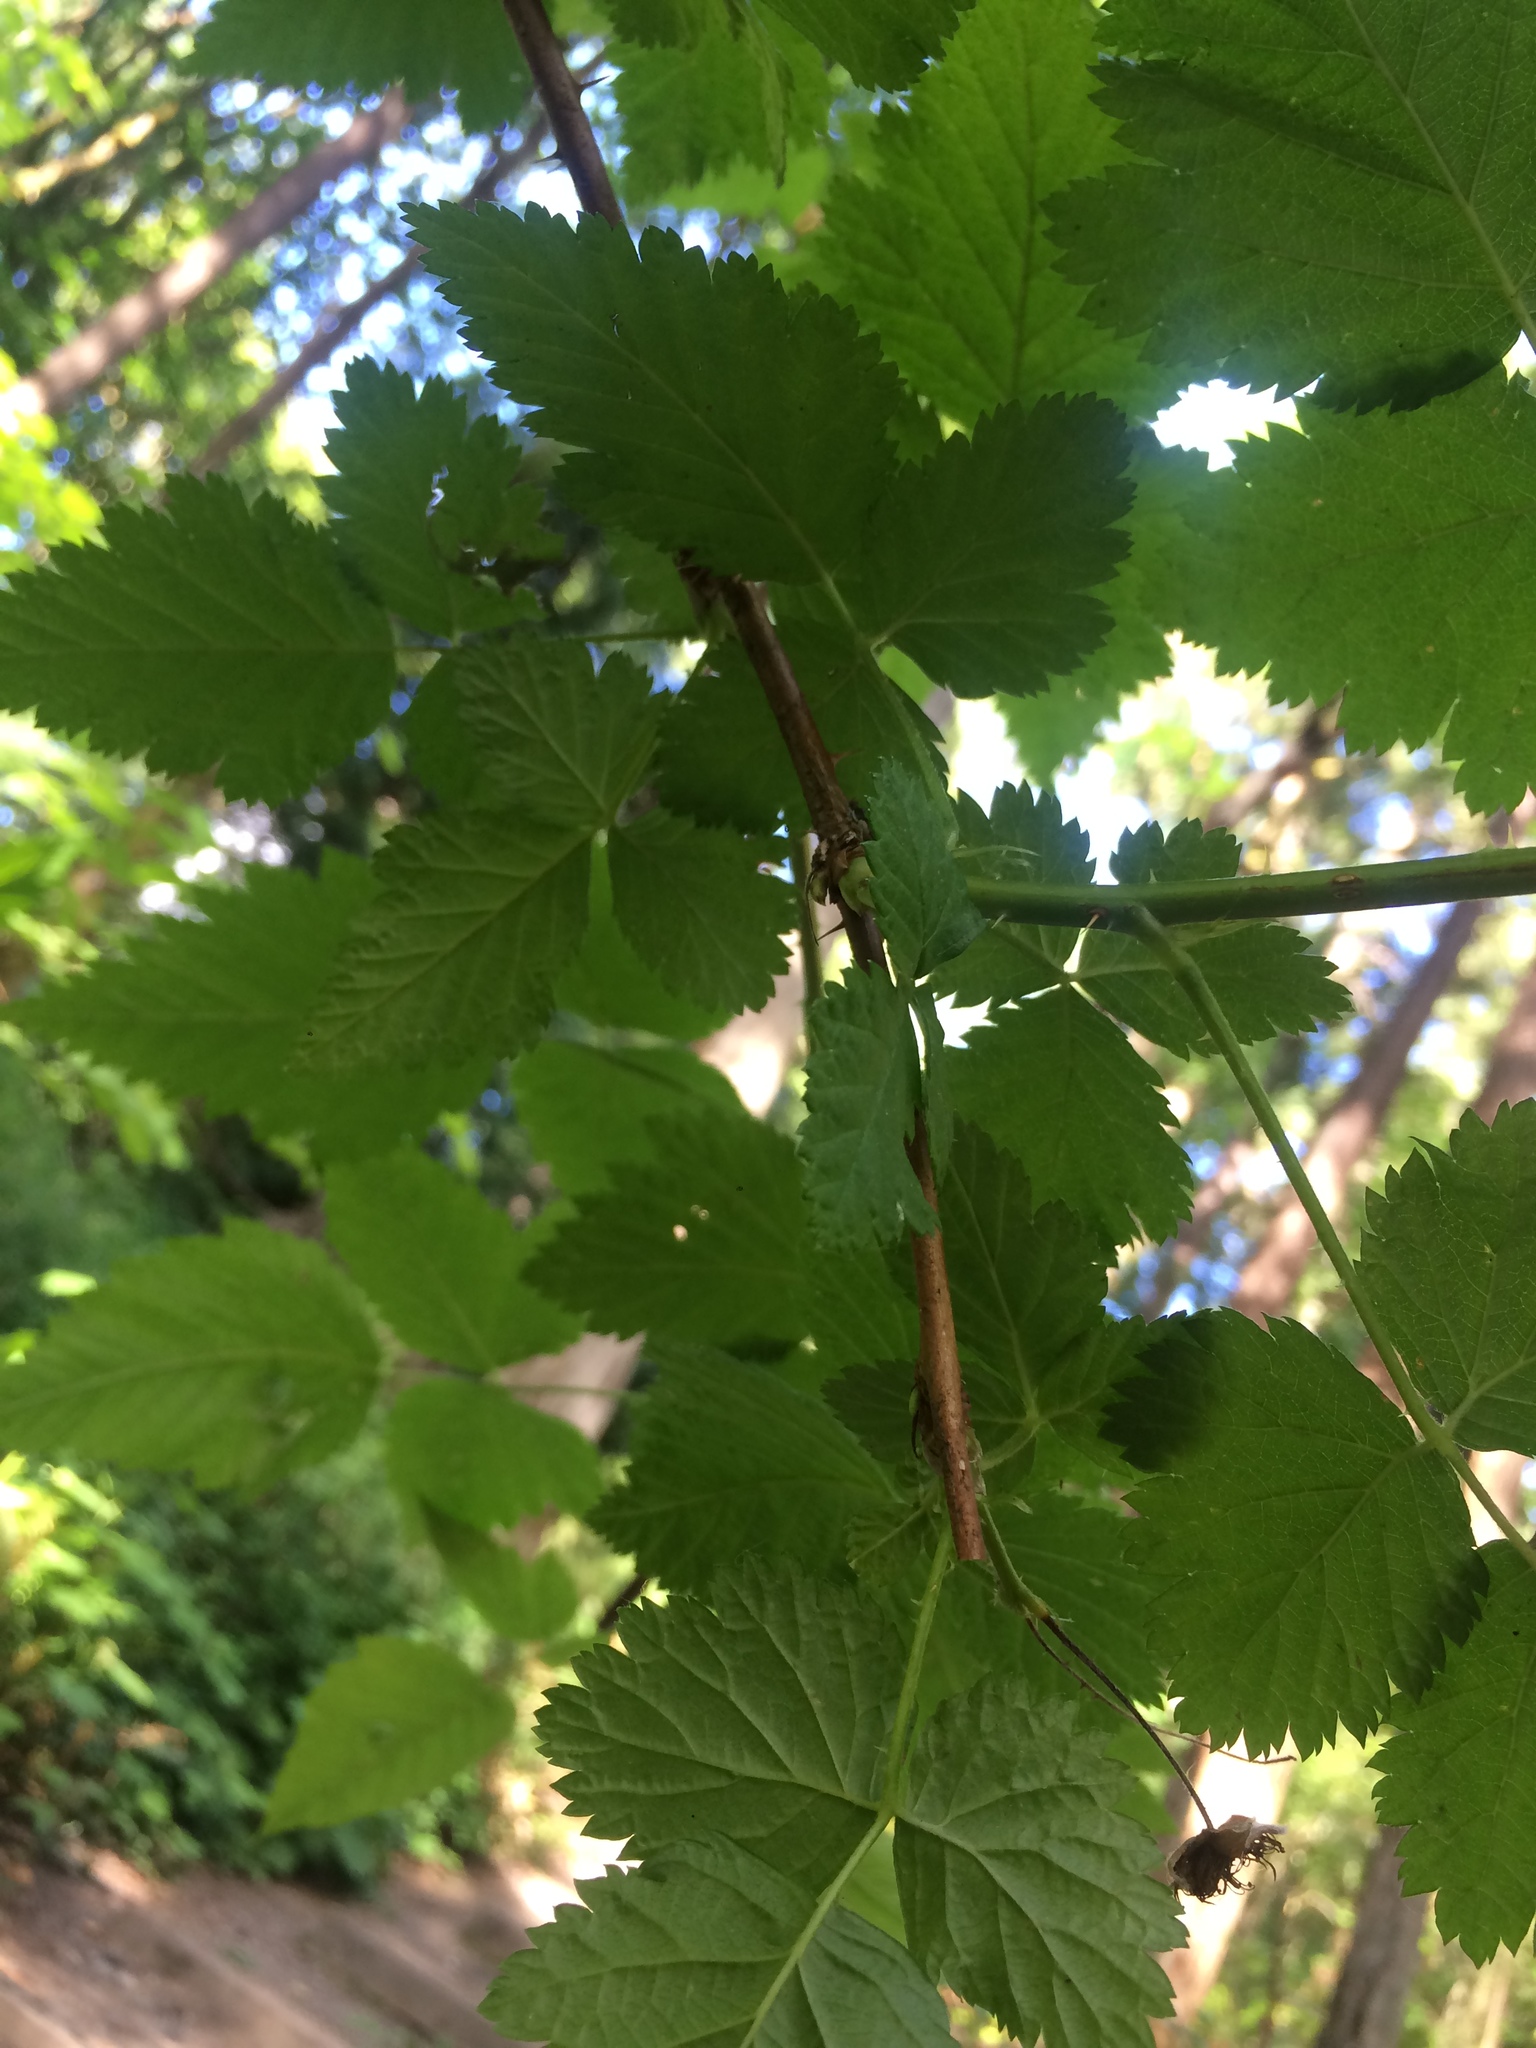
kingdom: Plantae
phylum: Tracheophyta
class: Magnoliopsida
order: Rosales
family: Rosaceae
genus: Rubus
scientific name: Rubus spectabilis
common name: Salmonberry
